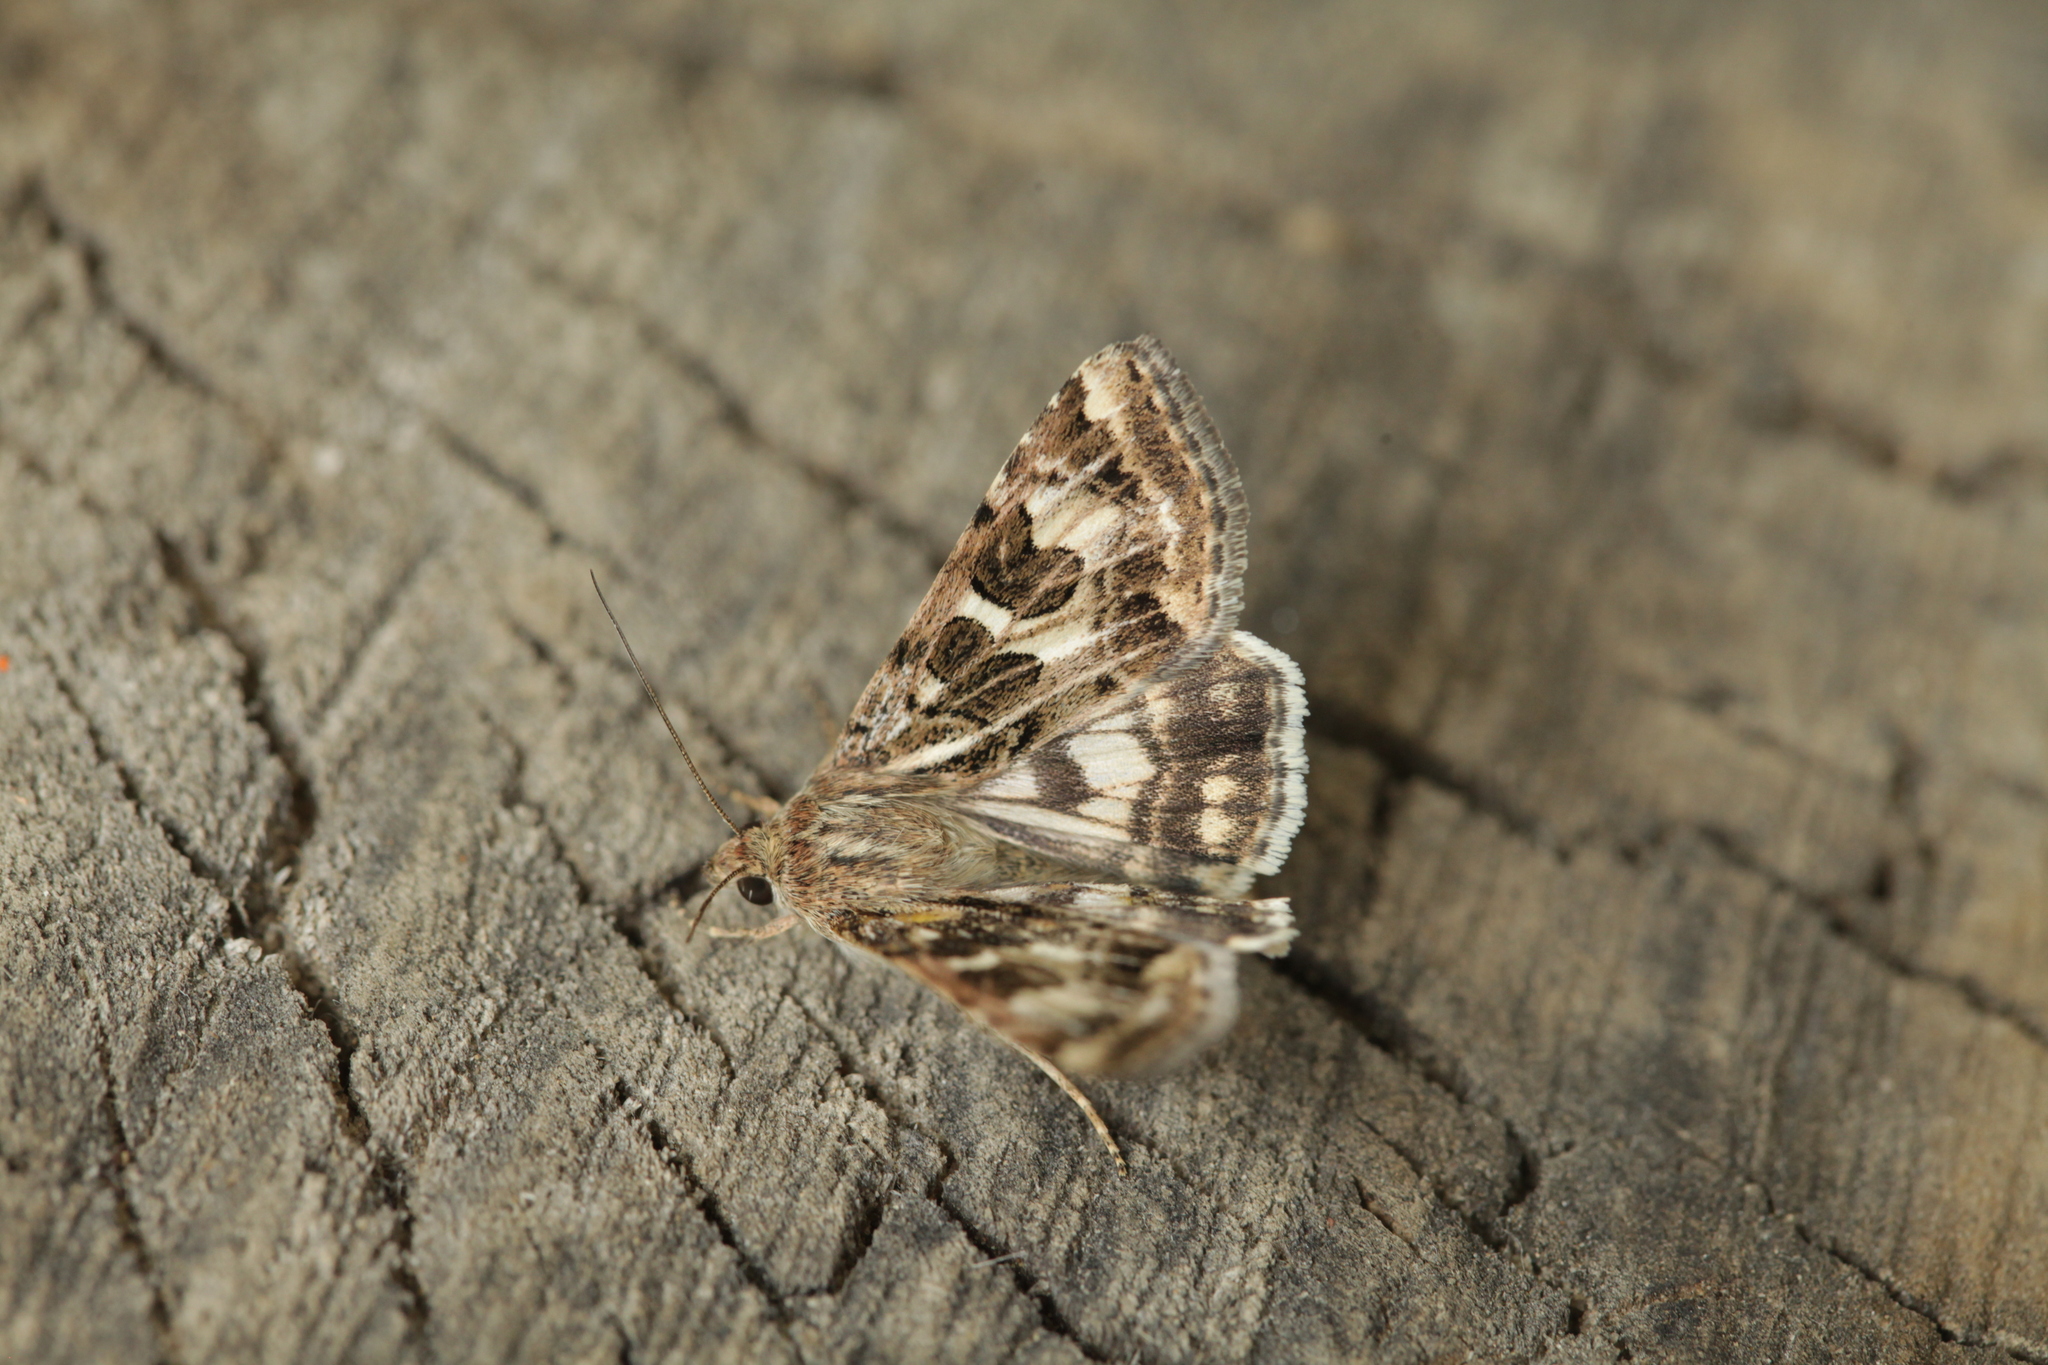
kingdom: Animalia
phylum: Arthropoda
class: Insecta
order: Lepidoptera
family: Noctuidae
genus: Protoschinia
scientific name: Protoschinia scutosa
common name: Spotted clover
